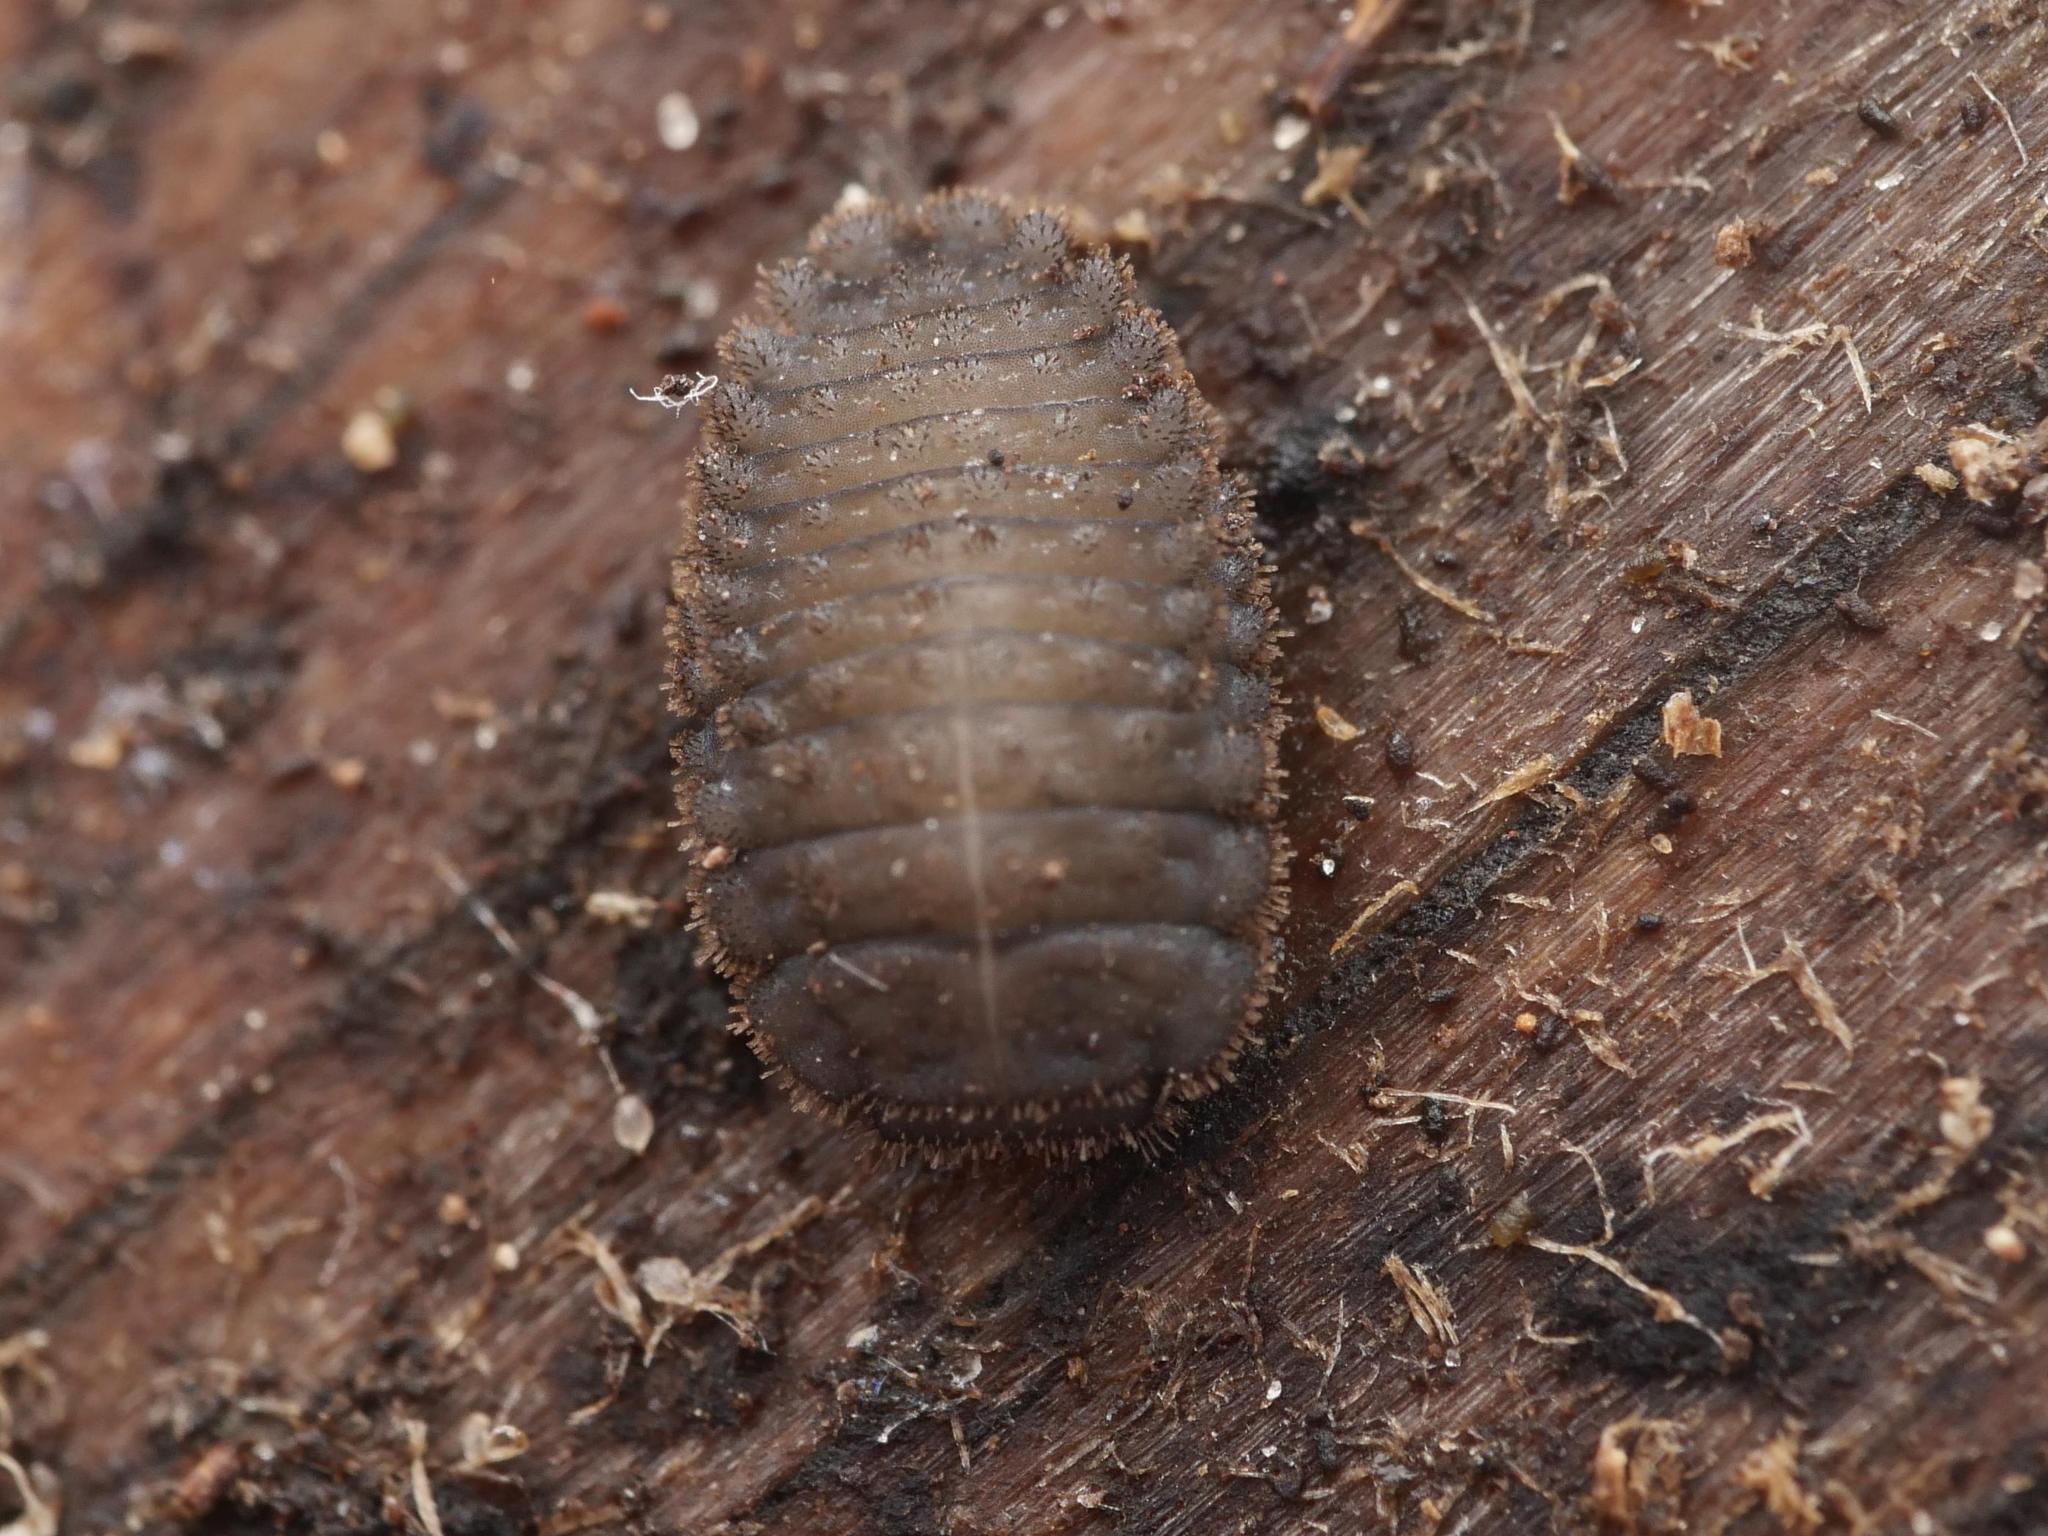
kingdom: Animalia
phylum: Arthropoda
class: Insecta
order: Coleoptera
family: Endomychidae
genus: Mycetina
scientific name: Mycetina cruciata
